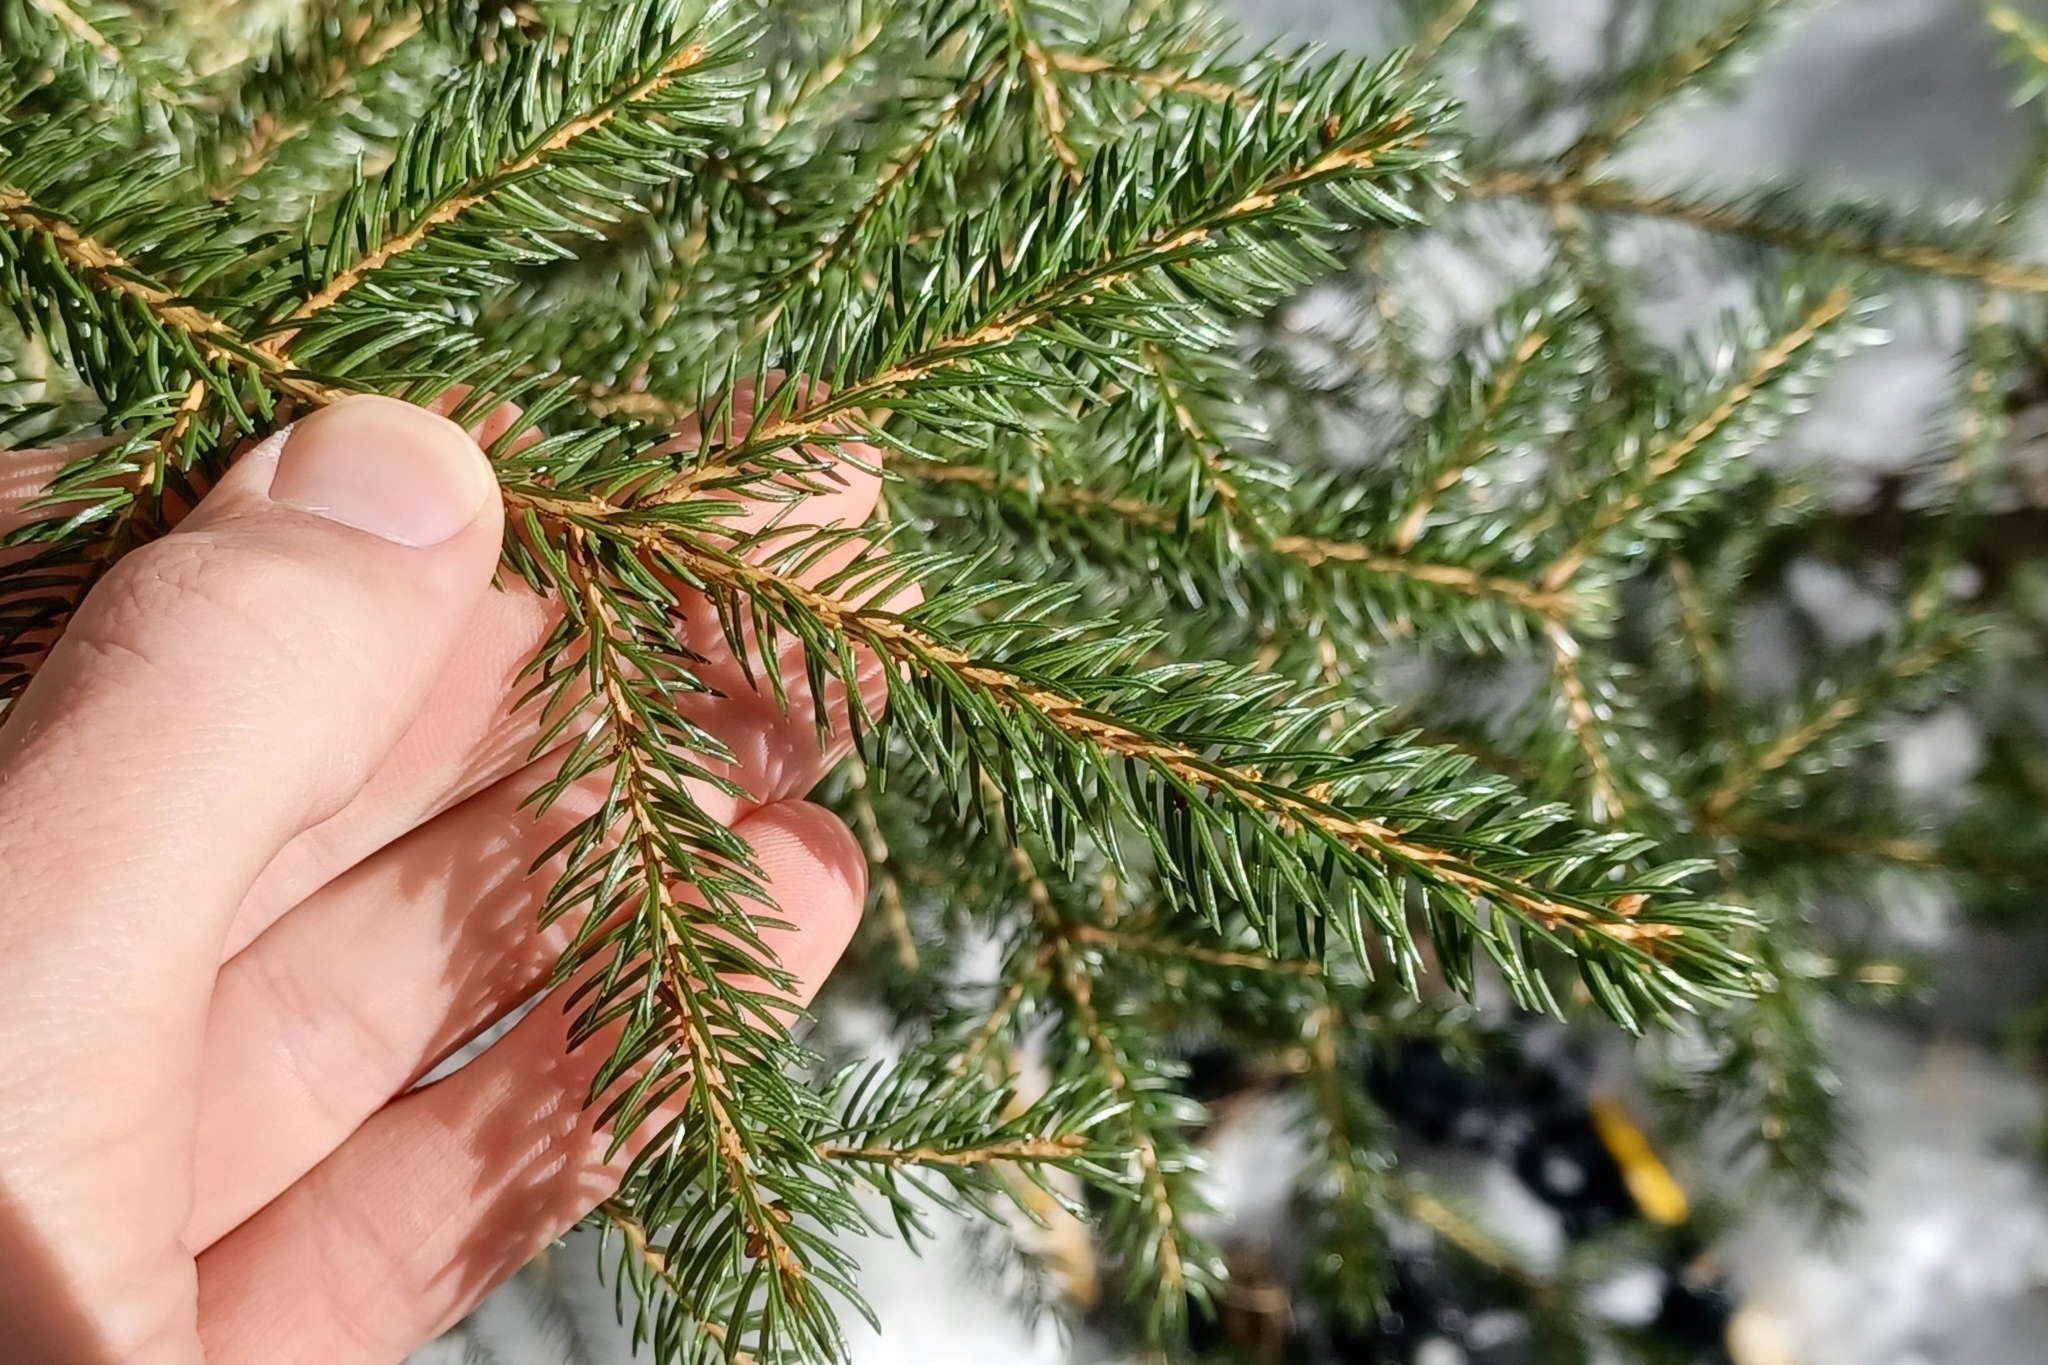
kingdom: Plantae
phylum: Tracheophyta
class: Pinopsida
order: Pinales
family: Pinaceae
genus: Picea
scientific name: Picea rubens
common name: Red spruce
